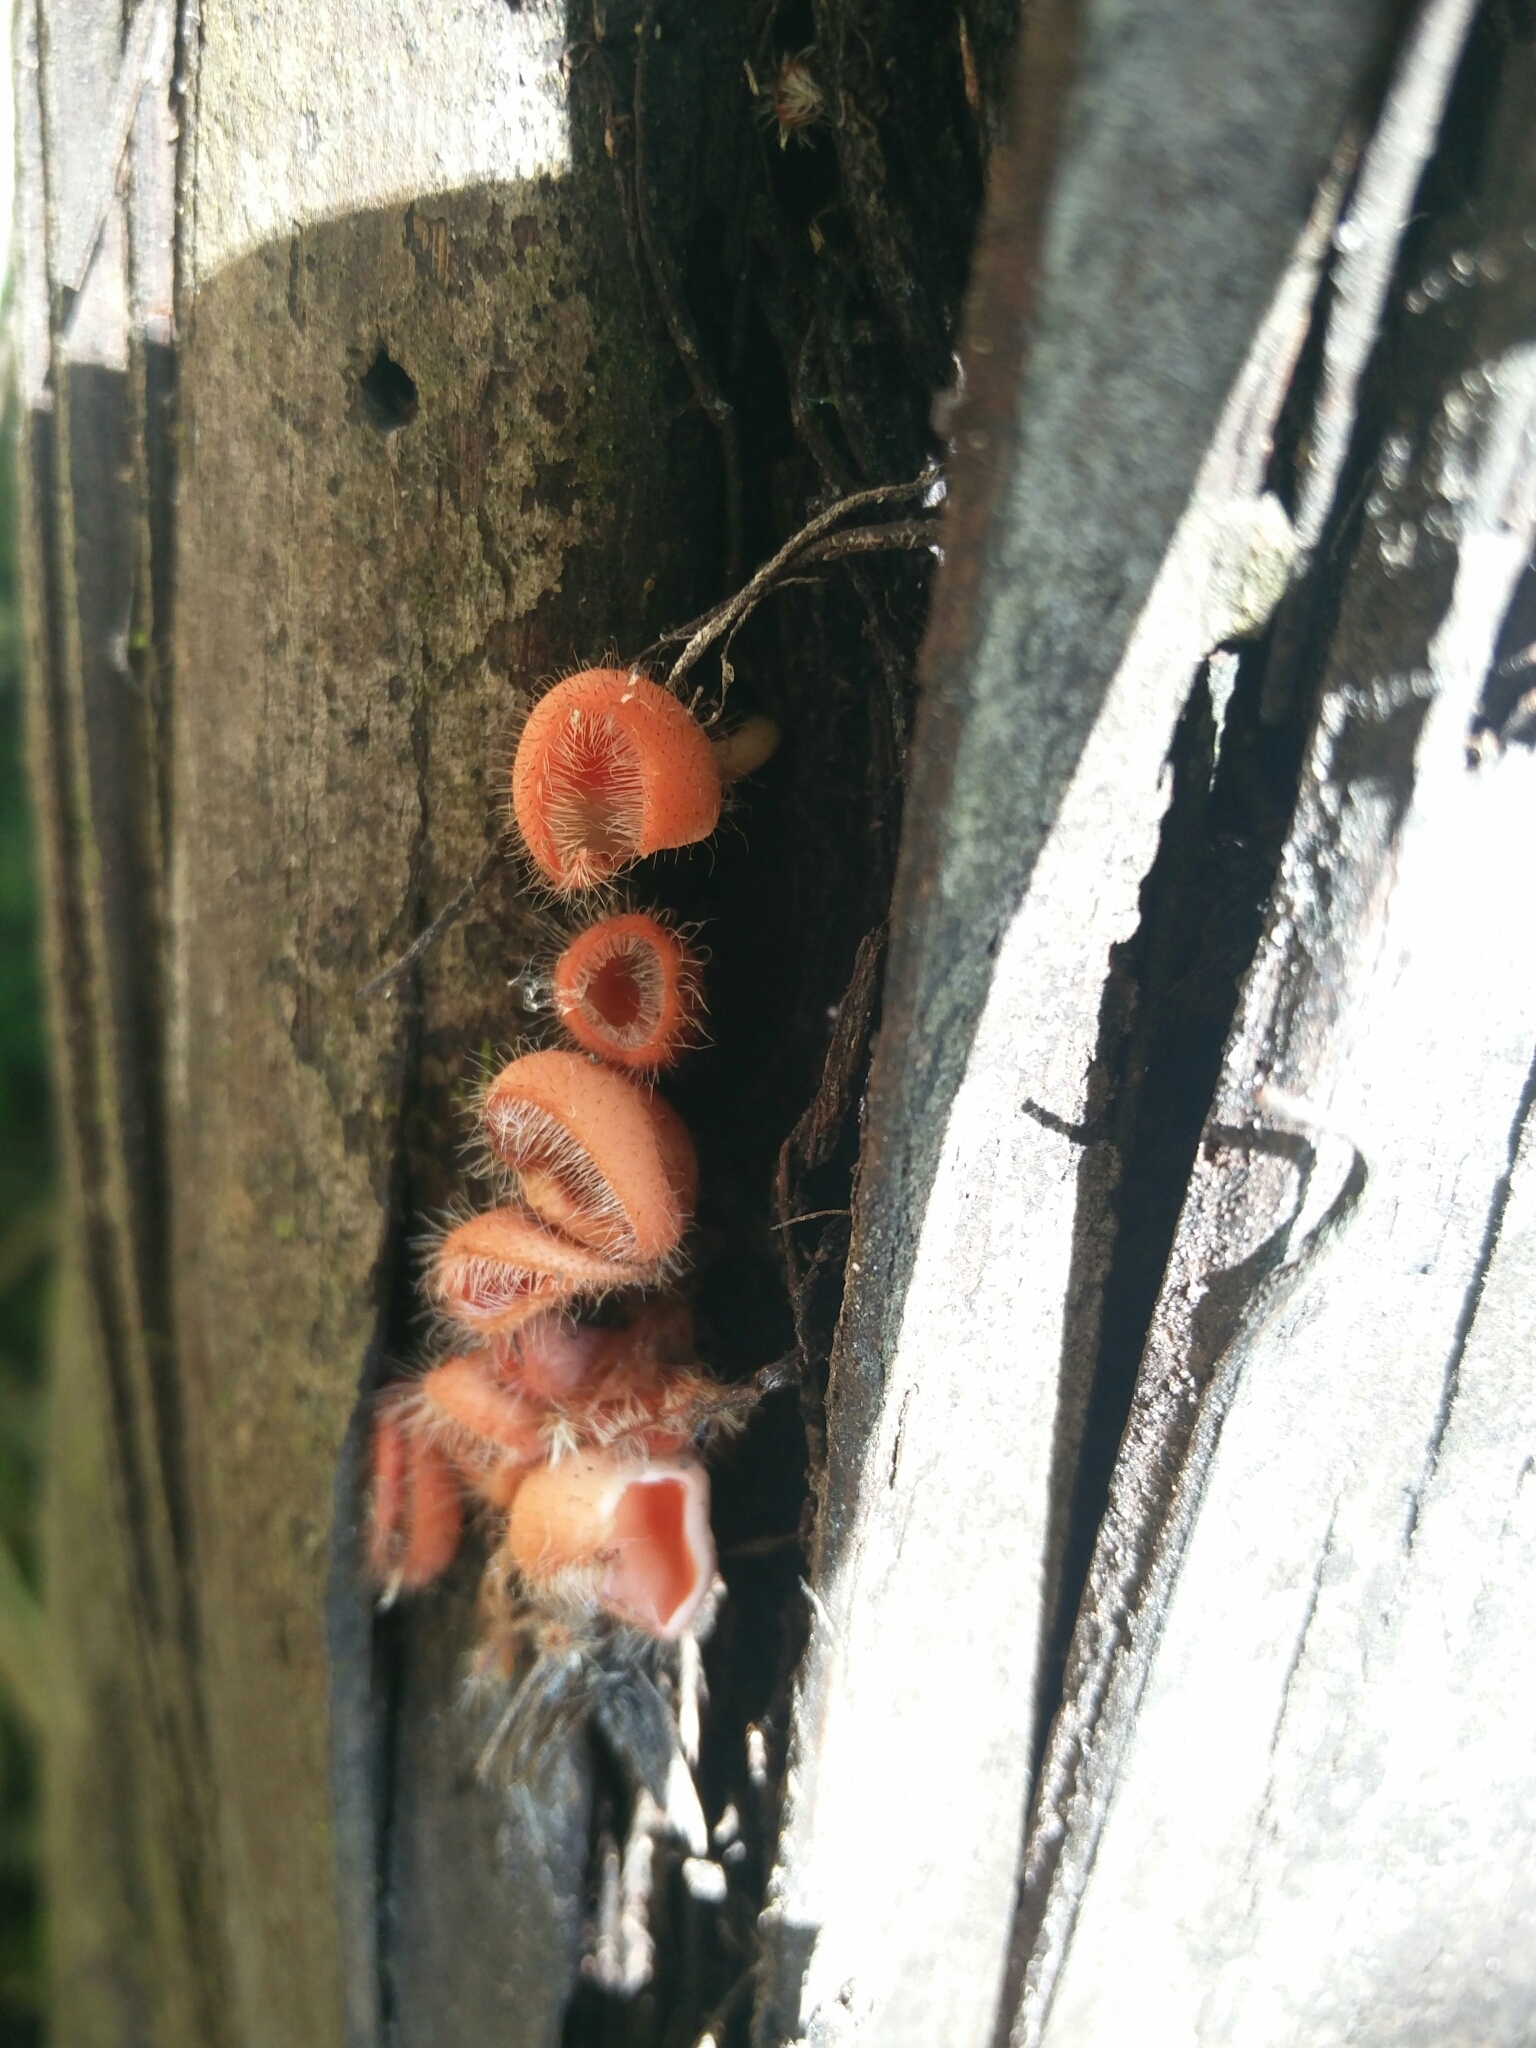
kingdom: Fungi
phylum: Ascomycota
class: Pezizomycetes
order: Pezizales
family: Sarcoscyphaceae
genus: Cookeina
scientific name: Cookeina tricholoma
